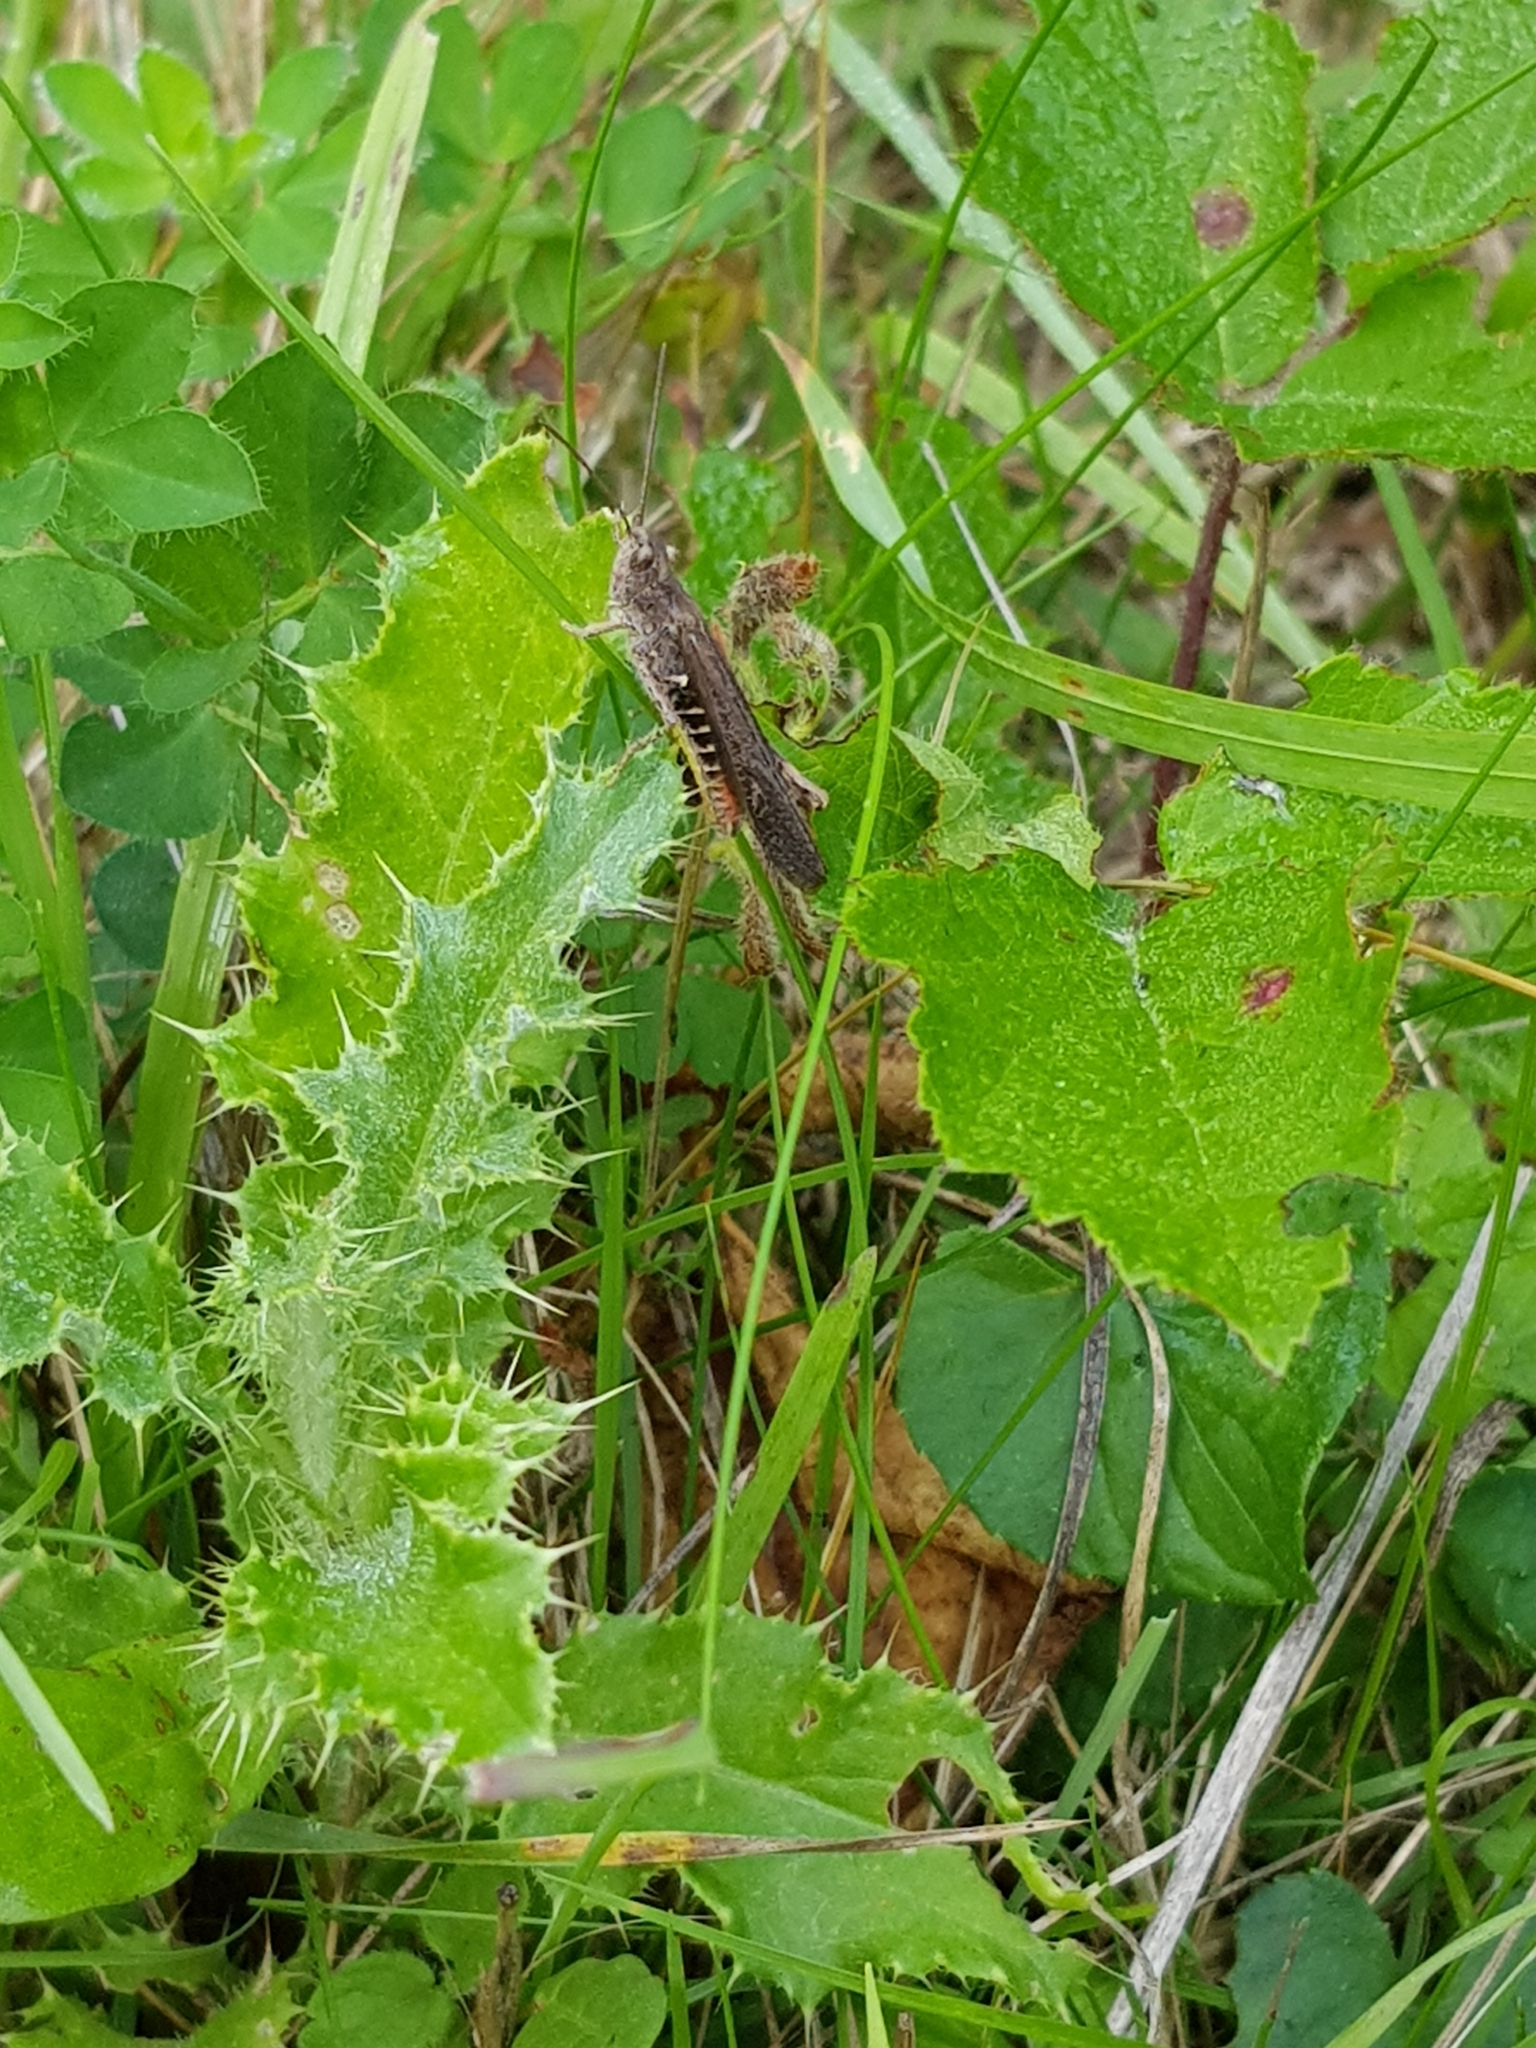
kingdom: Animalia
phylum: Arthropoda
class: Insecta
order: Orthoptera
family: Acrididae
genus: Chorthippus
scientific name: Chorthippus brunneus
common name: Field grasshopper
